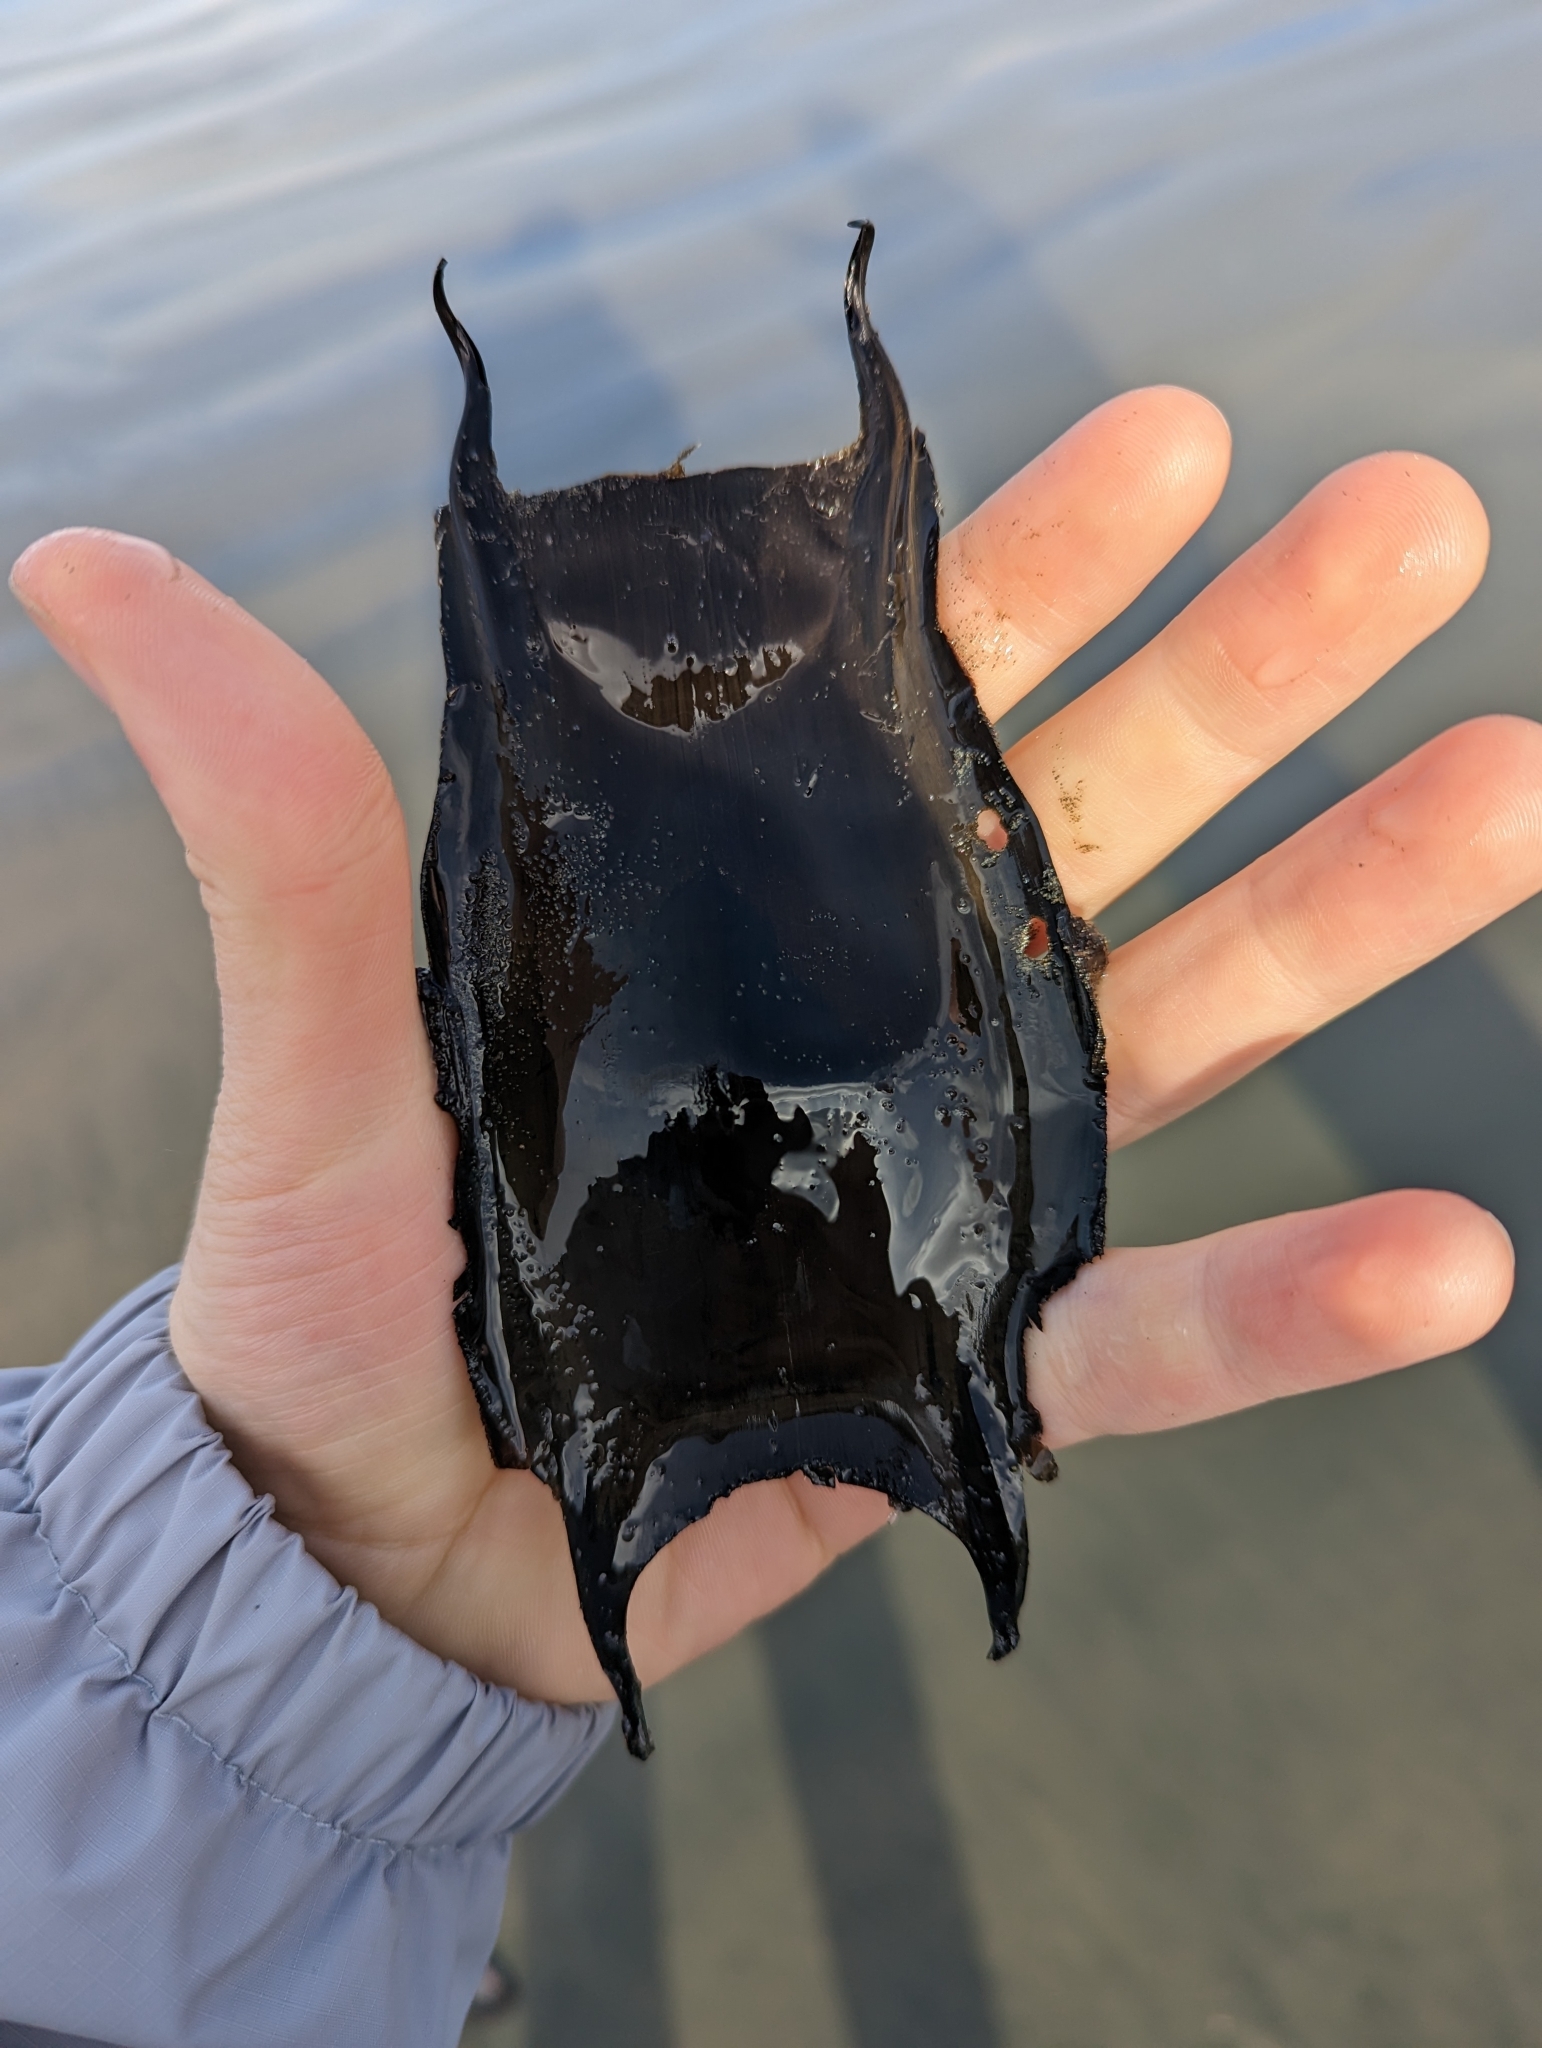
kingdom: Animalia
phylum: Chordata
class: Elasmobranchii
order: Rajiformes
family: Rajidae
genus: Caliraja
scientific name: Caliraja
